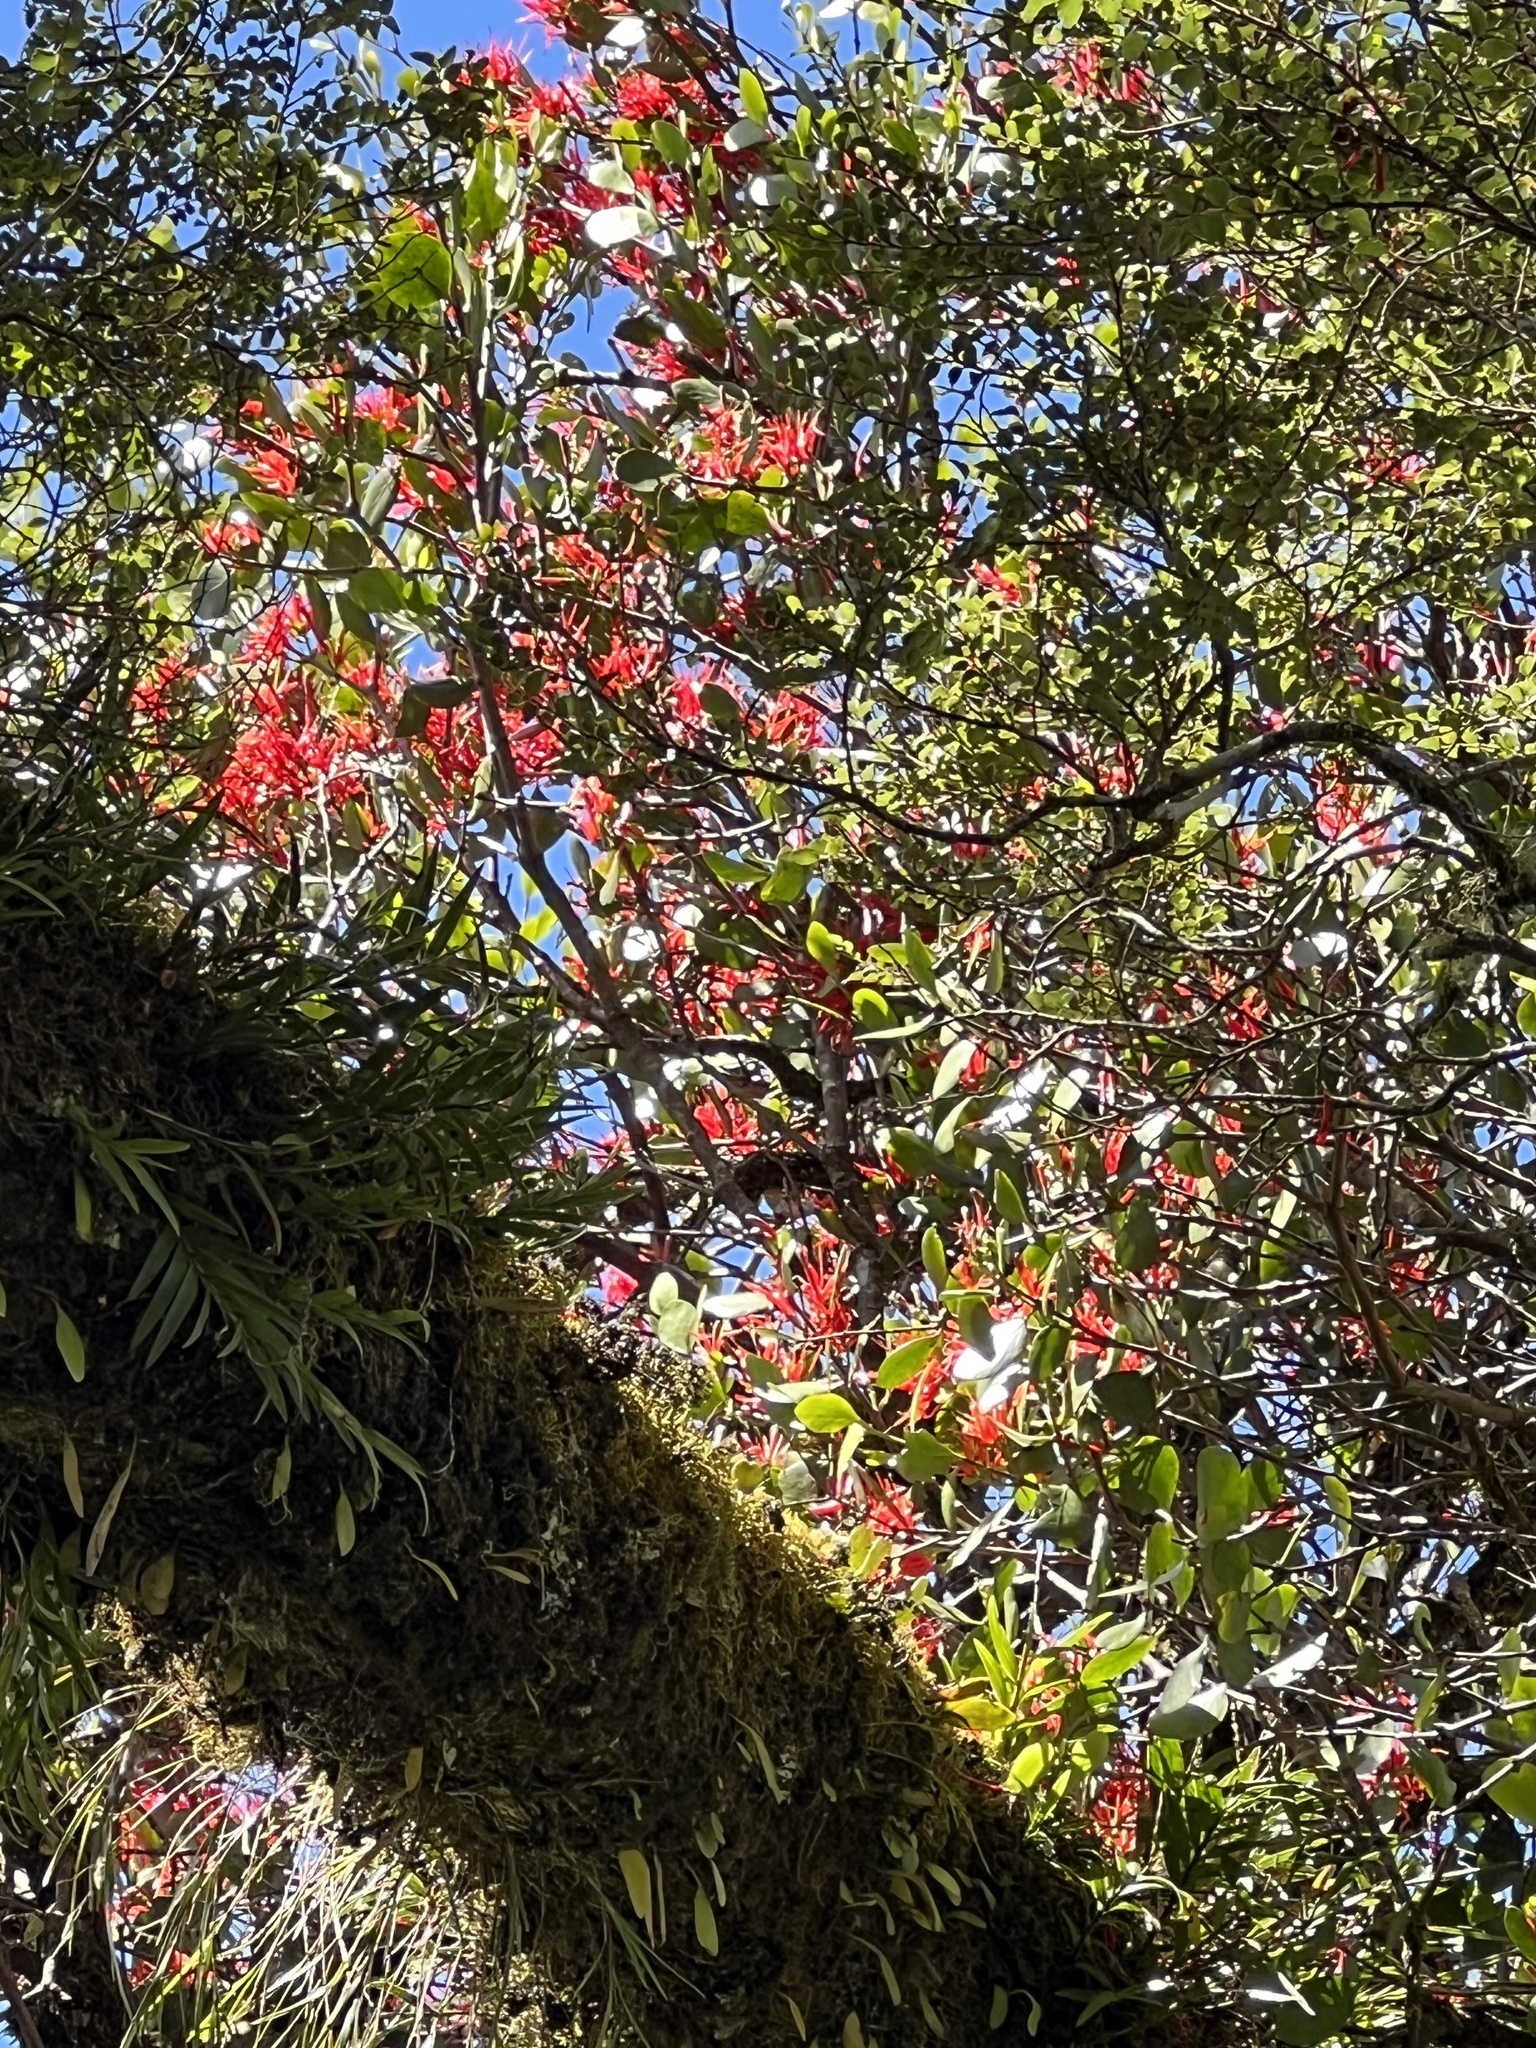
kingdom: Plantae
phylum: Tracheophyta
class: Magnoliopsida
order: Santalales
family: Loranthaceae
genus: Peraxilla
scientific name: Peraxilla colensoi
